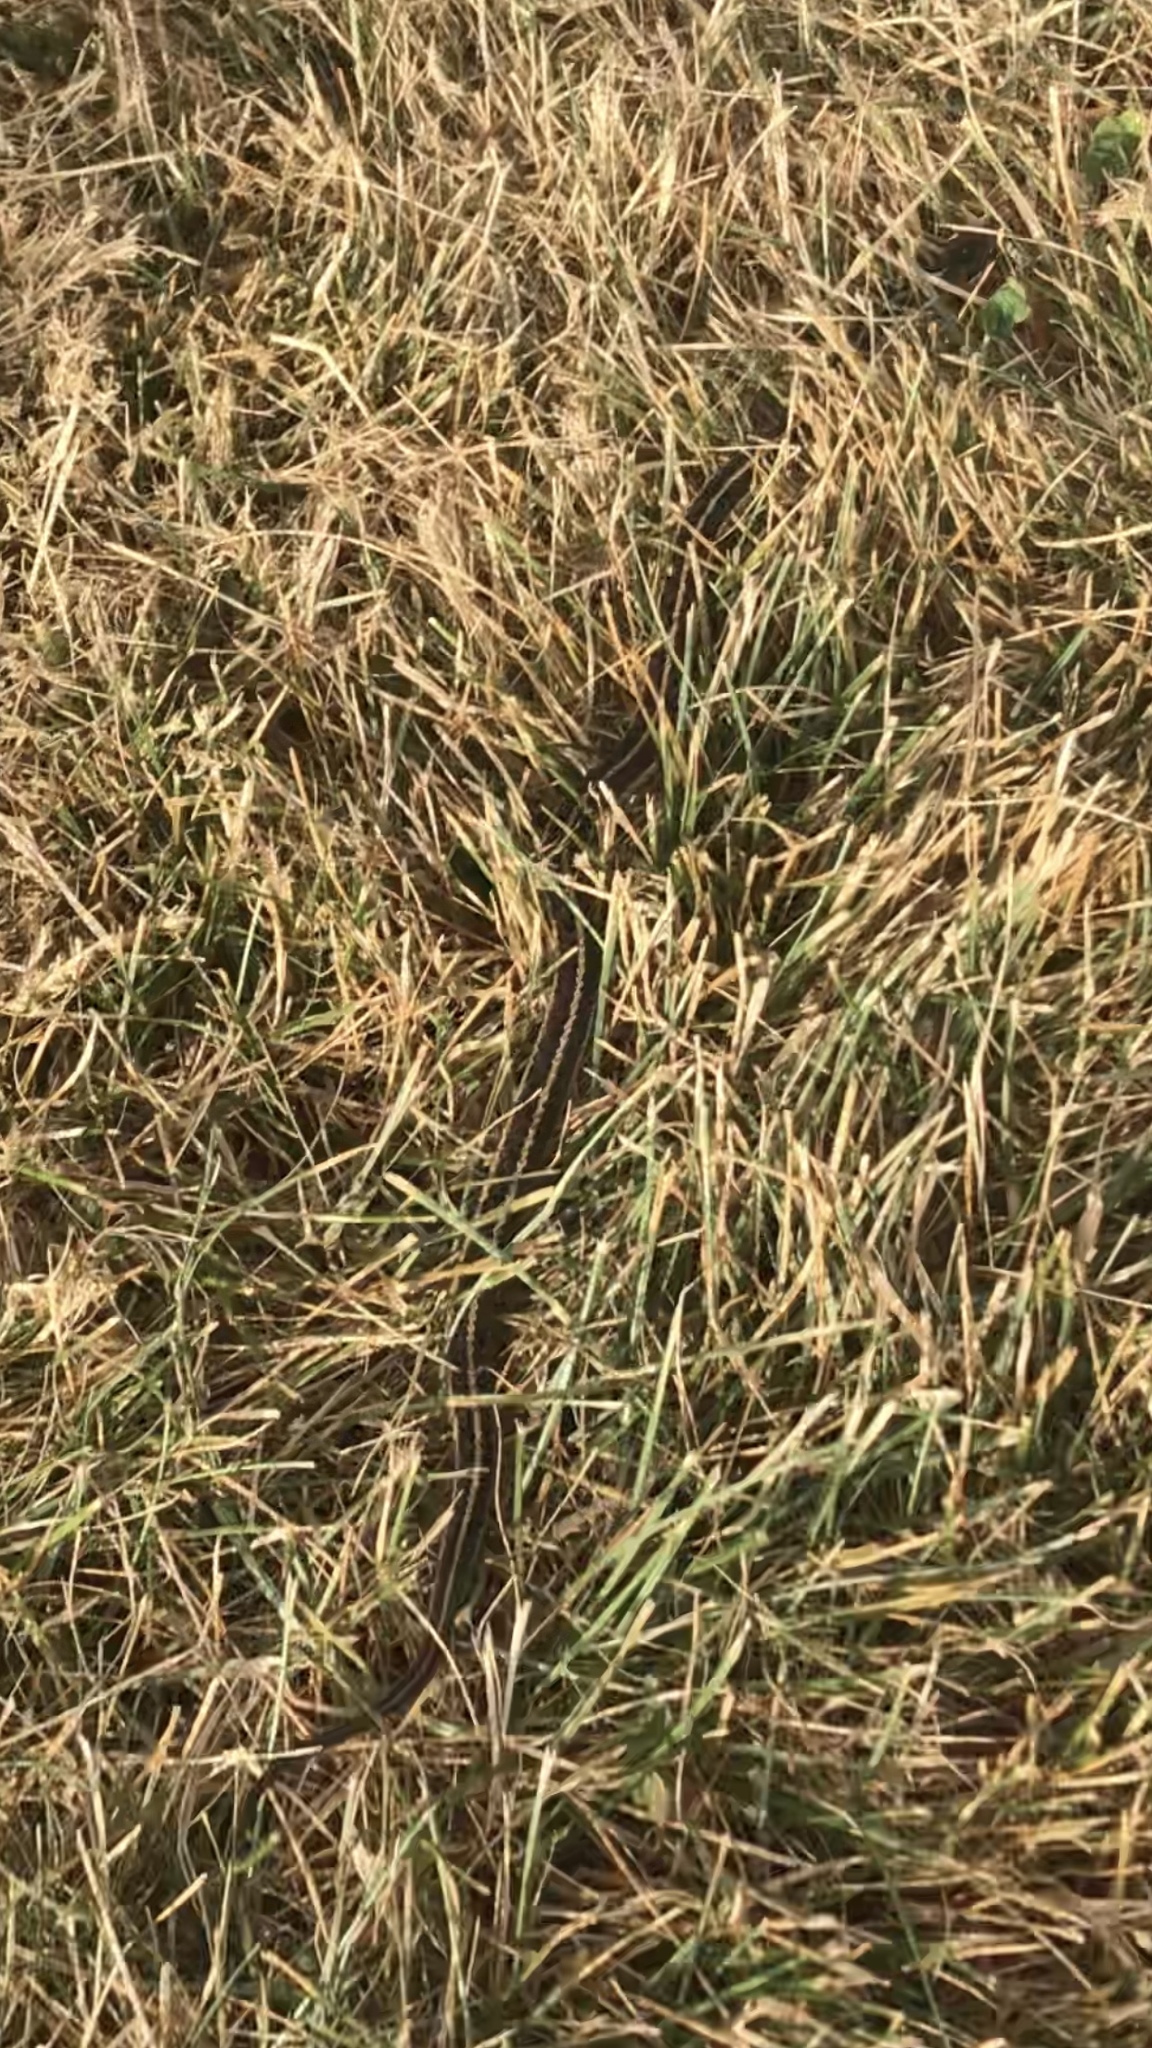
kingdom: Animalia
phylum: Chordata
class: Squamata
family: Colubridae
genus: Thamnophis
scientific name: Thamnophis sirtalis
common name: Common garter snake
